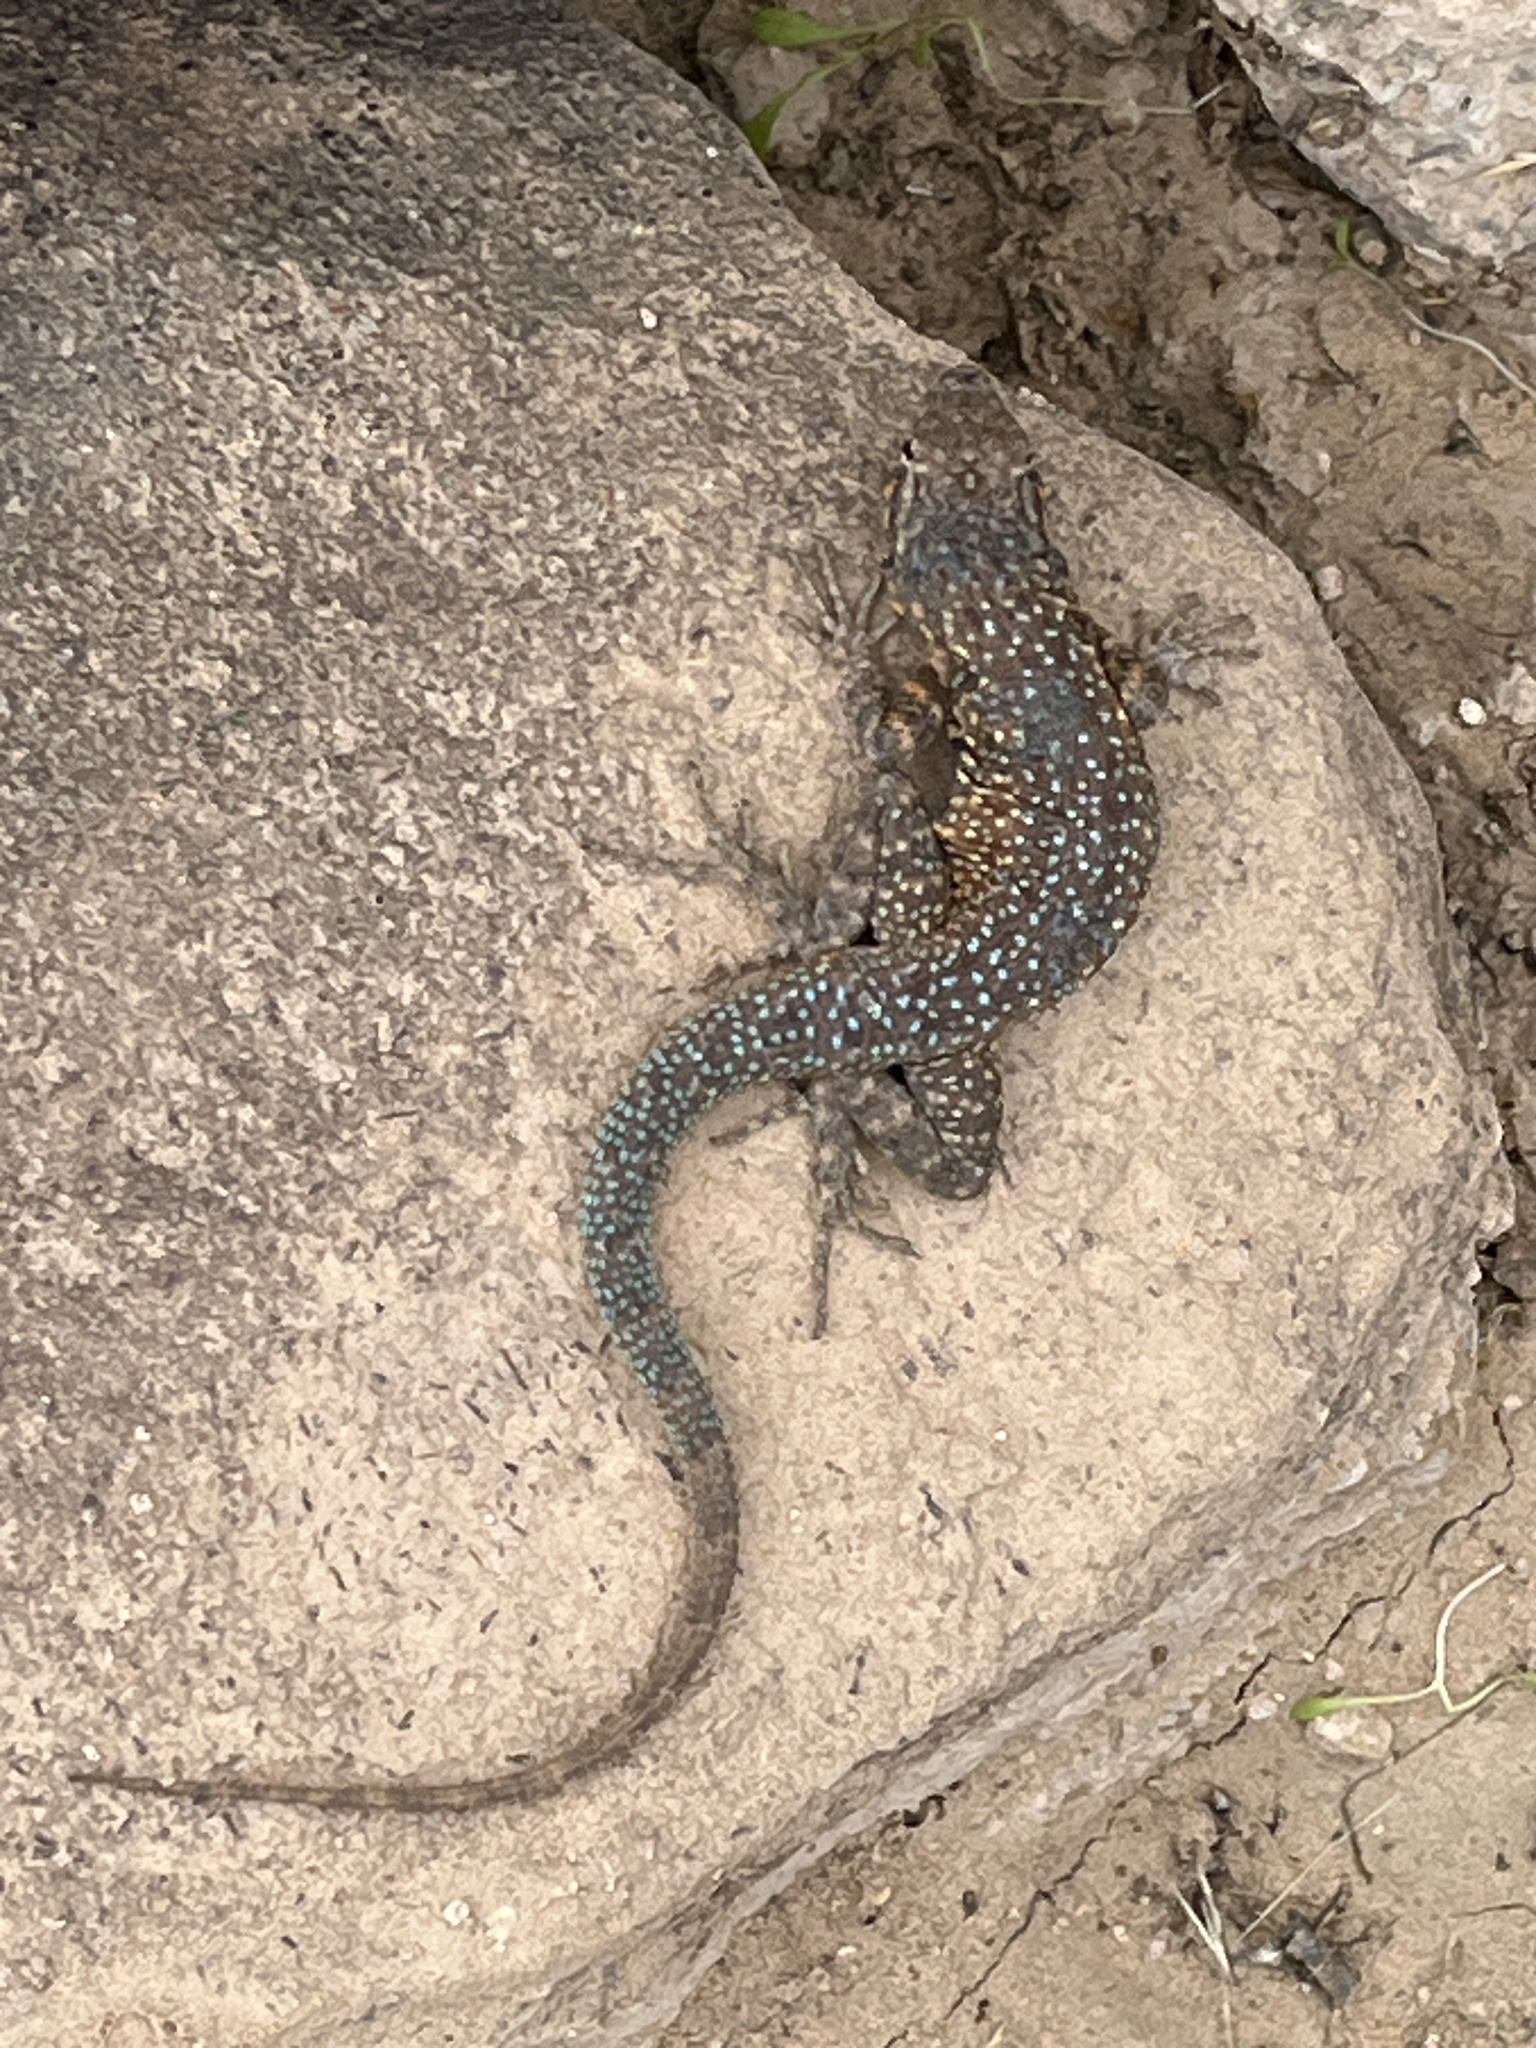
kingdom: Animalia
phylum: Chordata
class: Squamata
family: Phrynosomatidae
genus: Uta
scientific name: Uta stansburiana
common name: Side-blotched lizard
